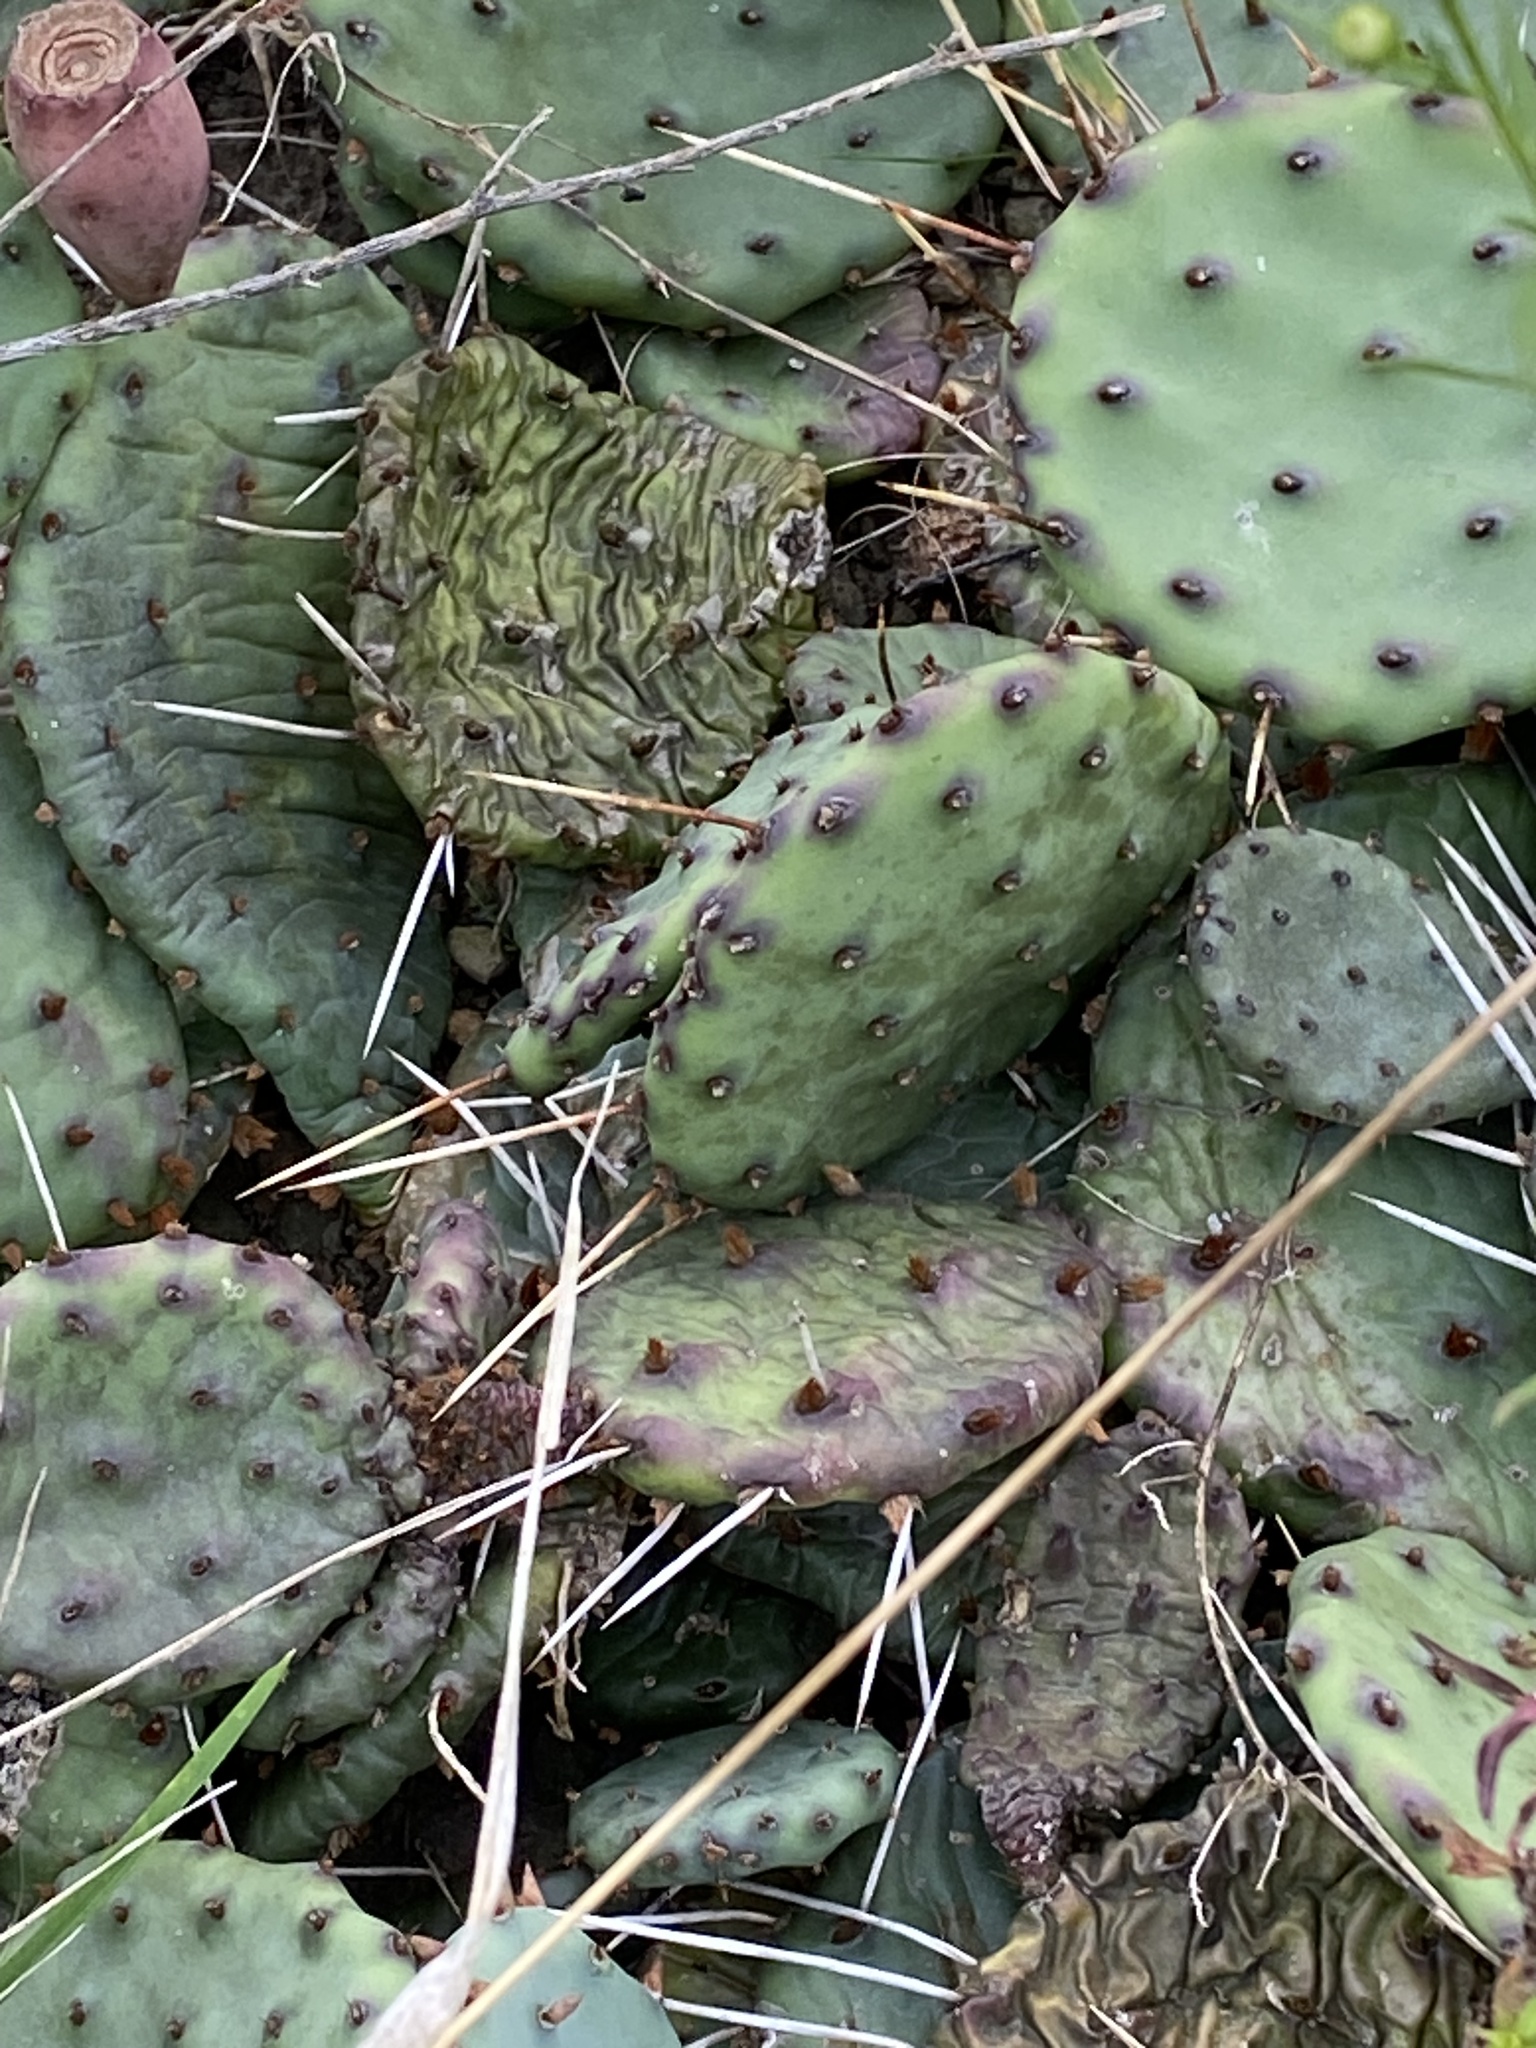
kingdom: Plantae
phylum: Tracheophyta
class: Magnoliopsida
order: Caryophyllales
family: Cactaceae
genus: Opuntia
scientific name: Opuntia humifusa
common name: Eastern prickly-pear
